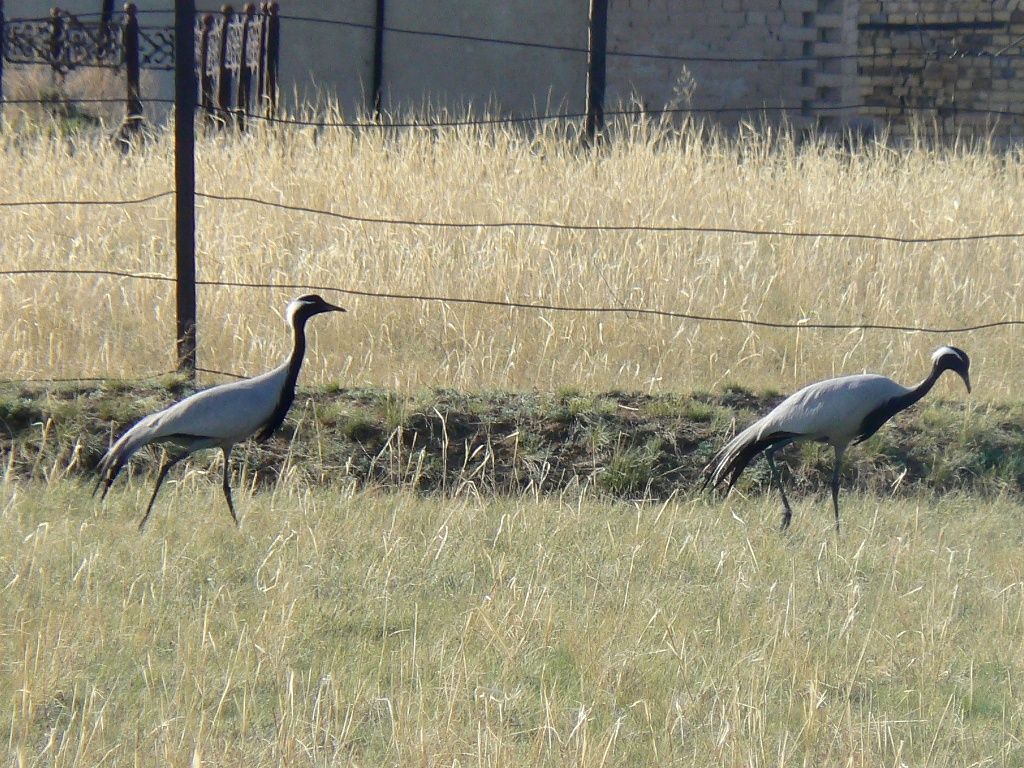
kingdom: Animalia
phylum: Chordata
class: Aves
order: Gruiformes
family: Gruidae
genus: Anthropoides
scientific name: Anthropoides virgo
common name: Demoiselle crane
